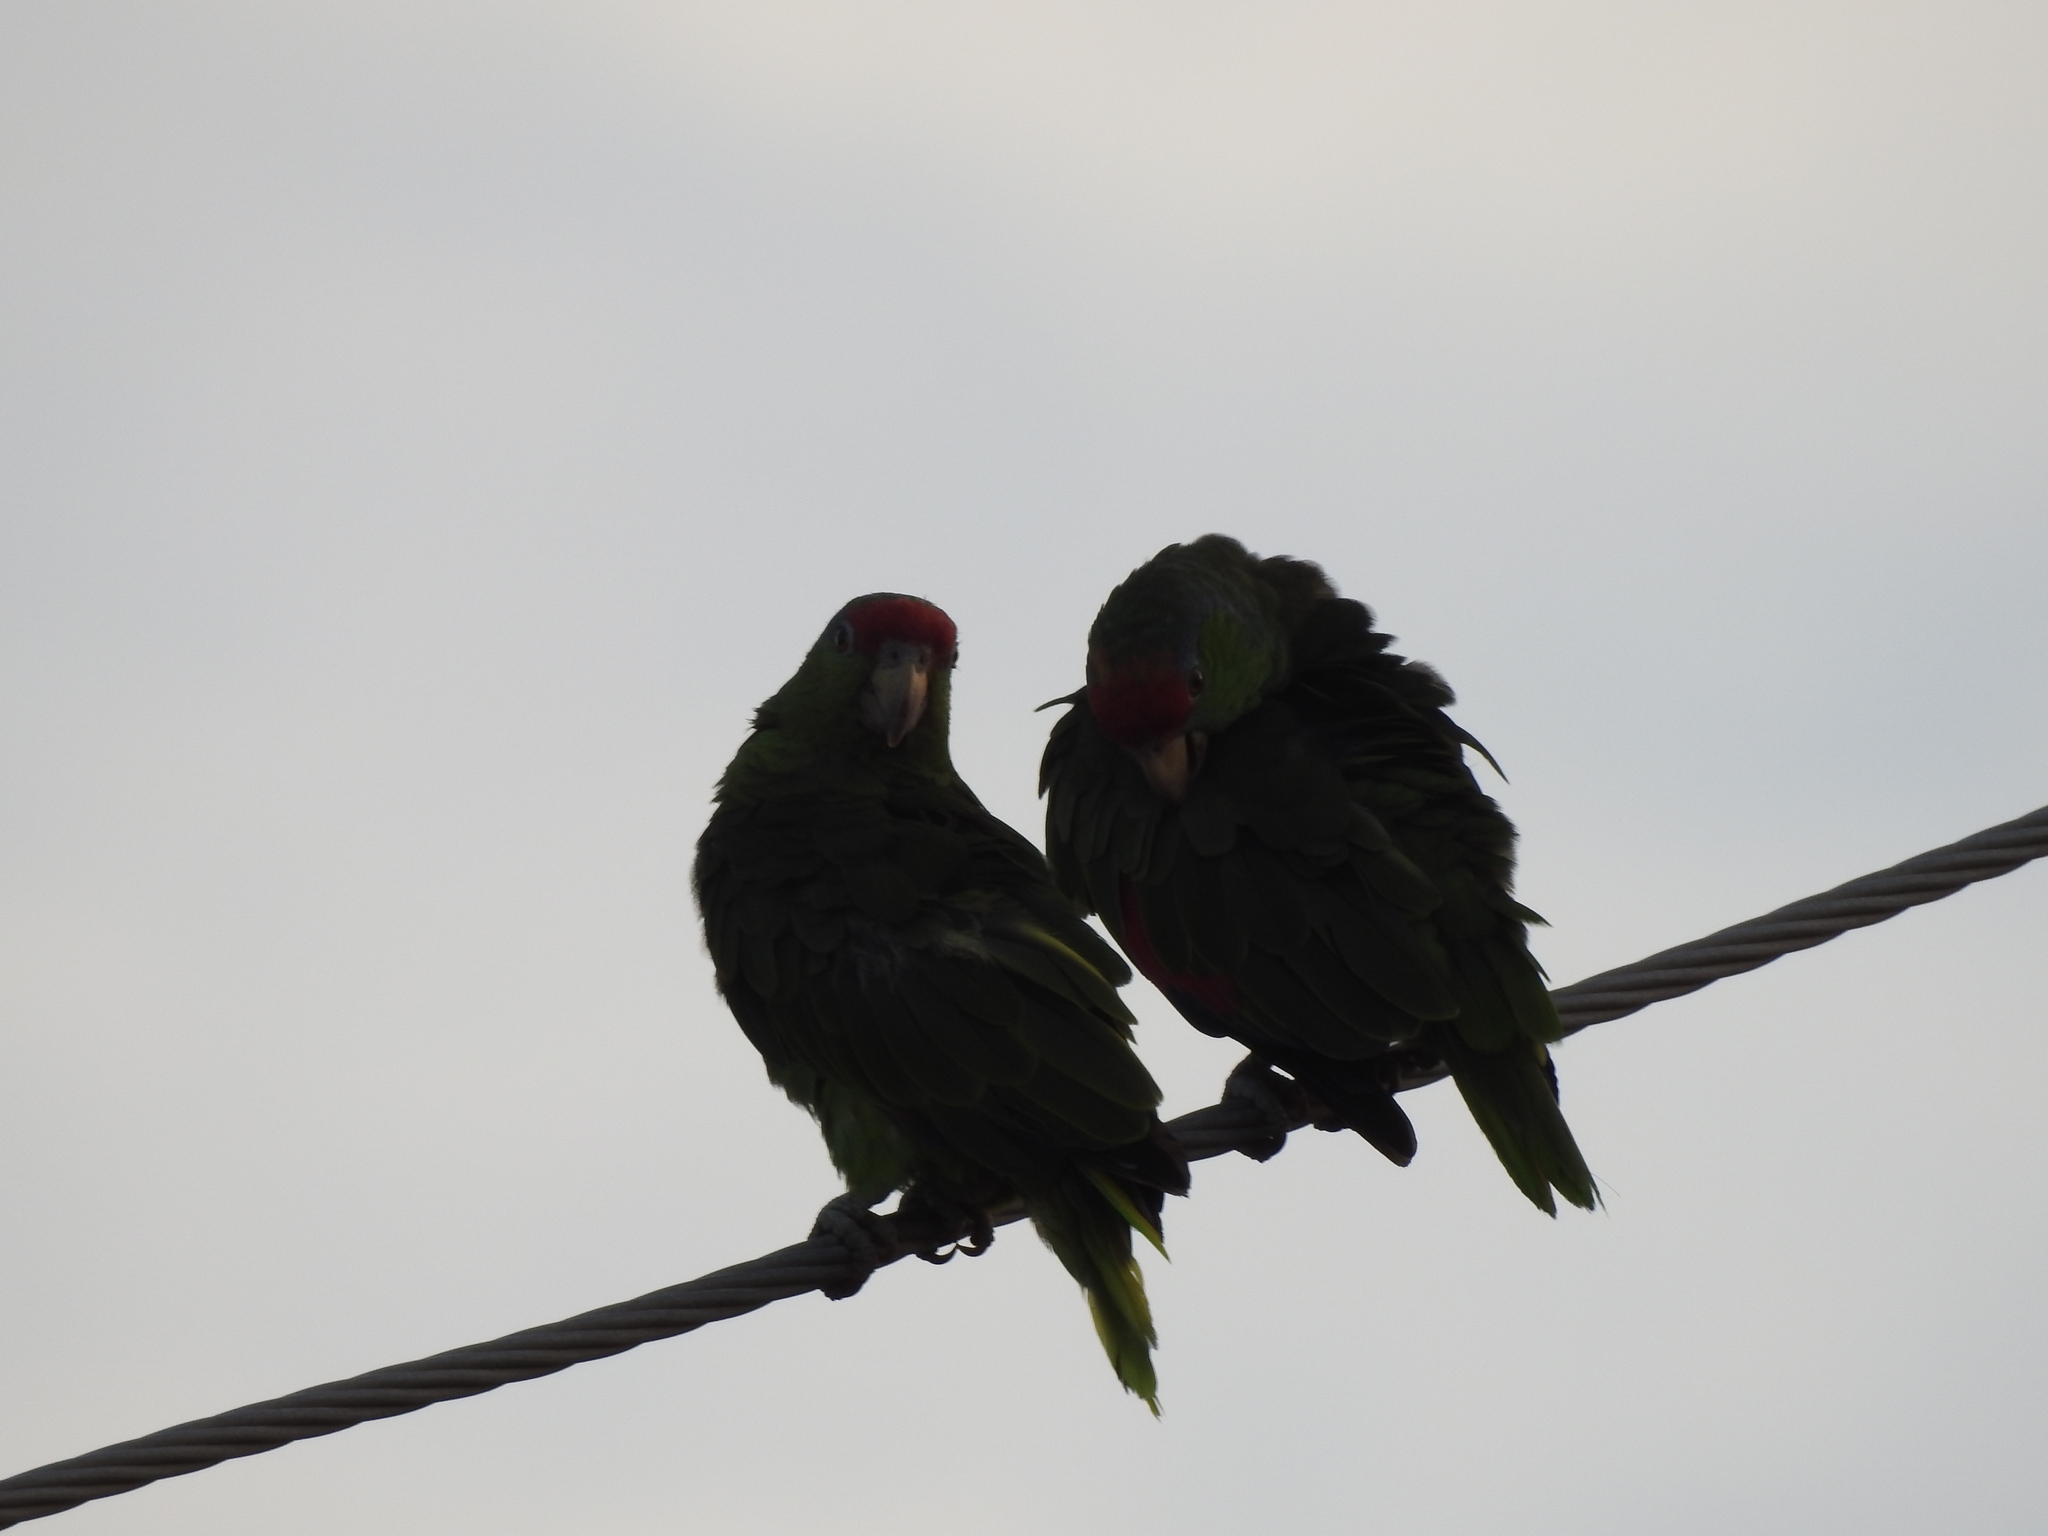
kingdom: Animalia
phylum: Chordata
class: Aves
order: Psittaciformes
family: Psittacidae
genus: Amazona
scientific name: Amazona viridigenalis
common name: Red-crowned amazon
